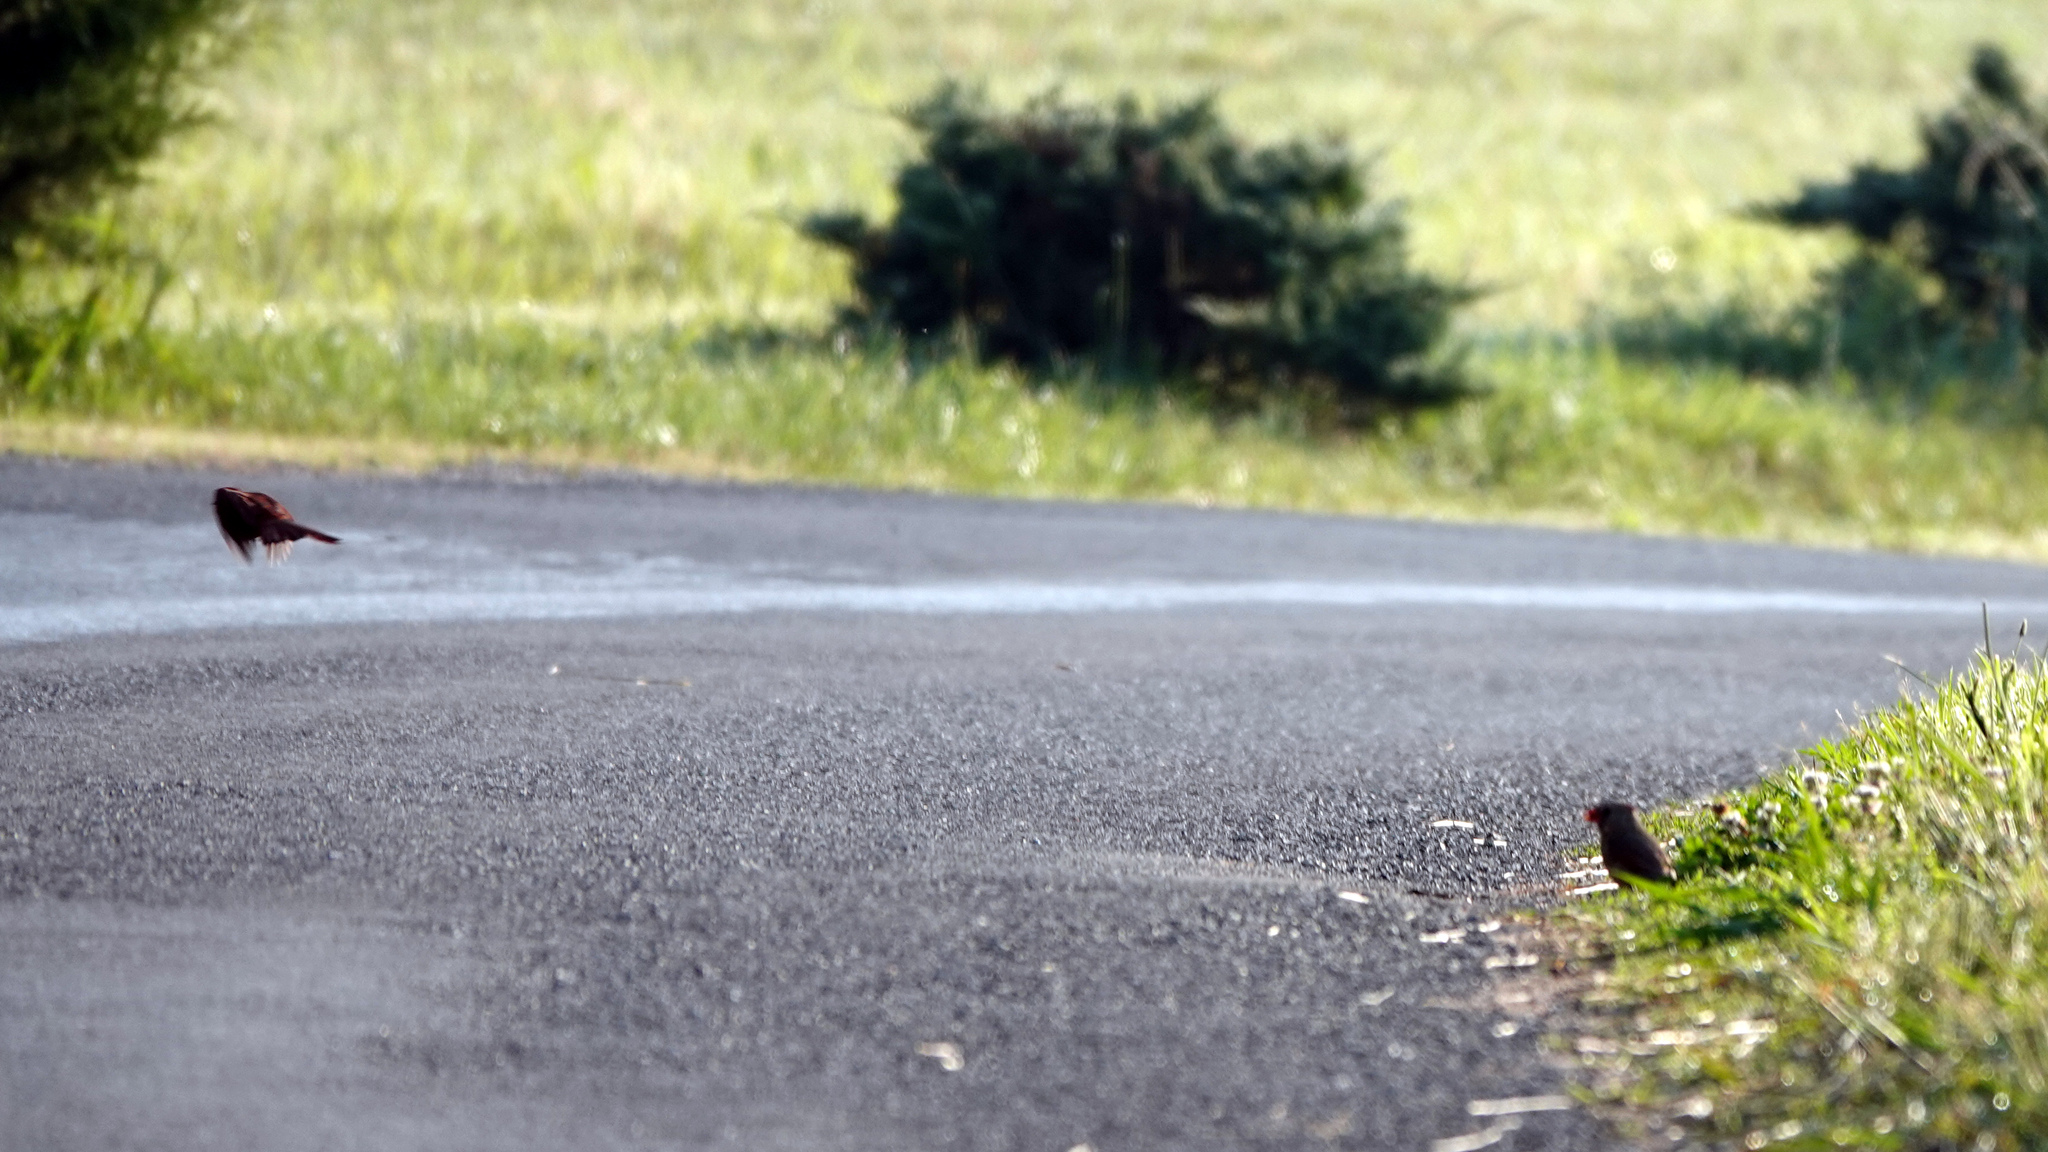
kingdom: Animalia
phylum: Chordata
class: Aves
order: Passeriformes
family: Cardinalidae
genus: Cardinalis
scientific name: Cardinalis cardinalis
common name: Northern cardinal
